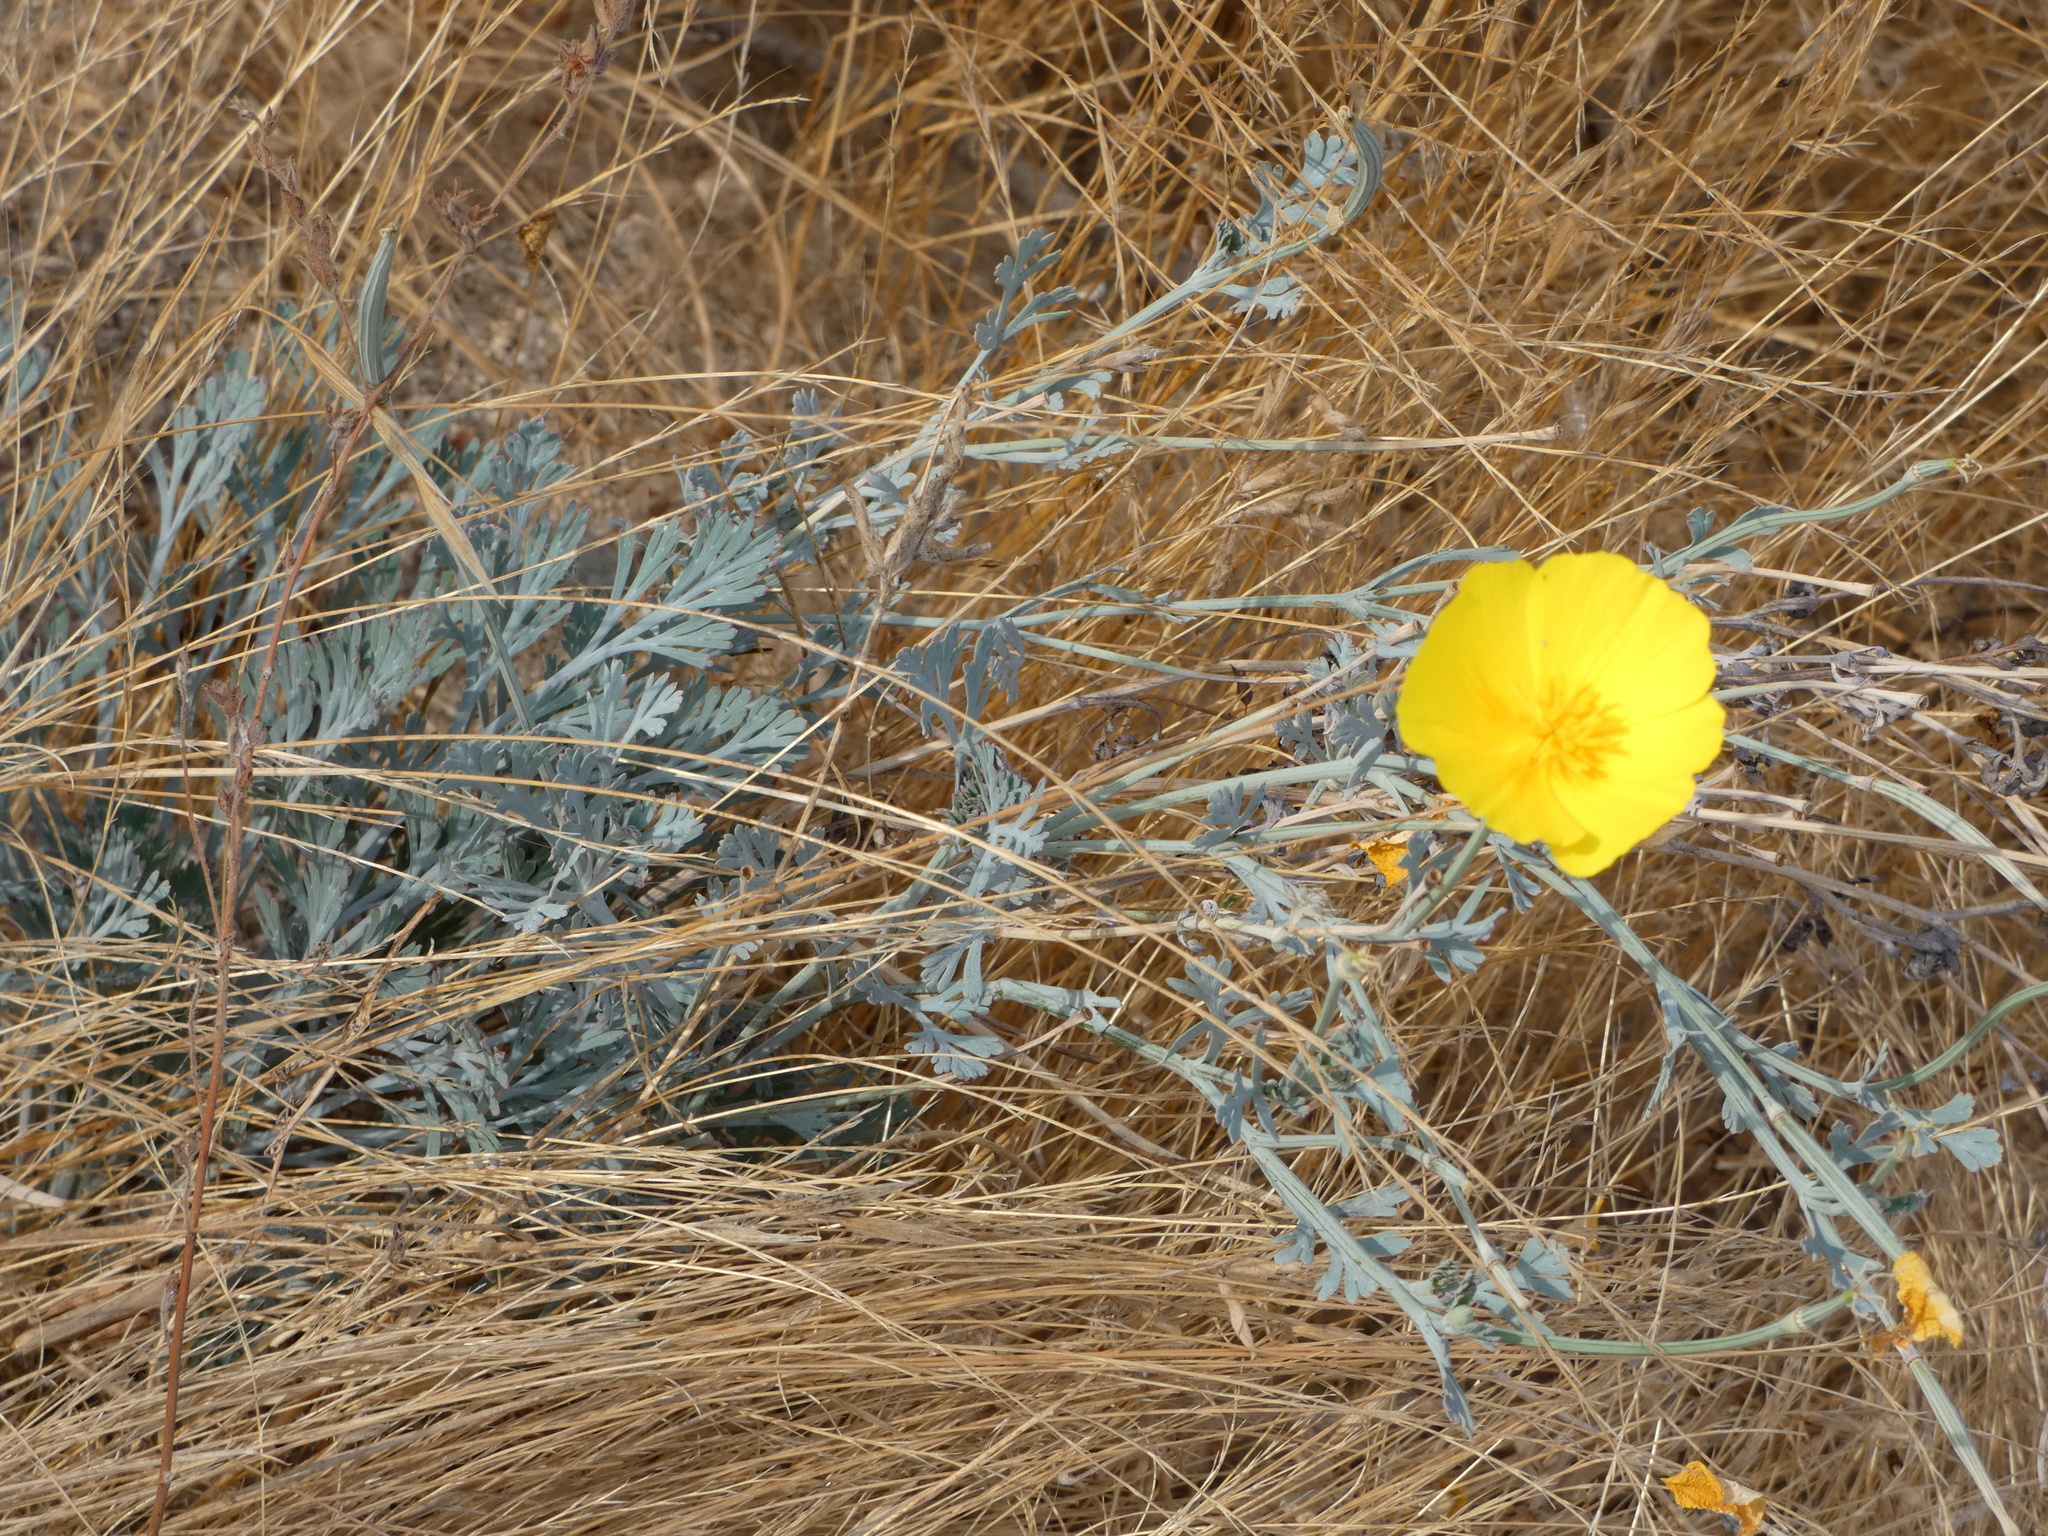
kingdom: Plantae
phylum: Tracheophyta
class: Magnoliopsida
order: Ranunculales
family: Papaveraceae
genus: Eschscholzia
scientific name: Eschscholzia californica
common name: California poppy
